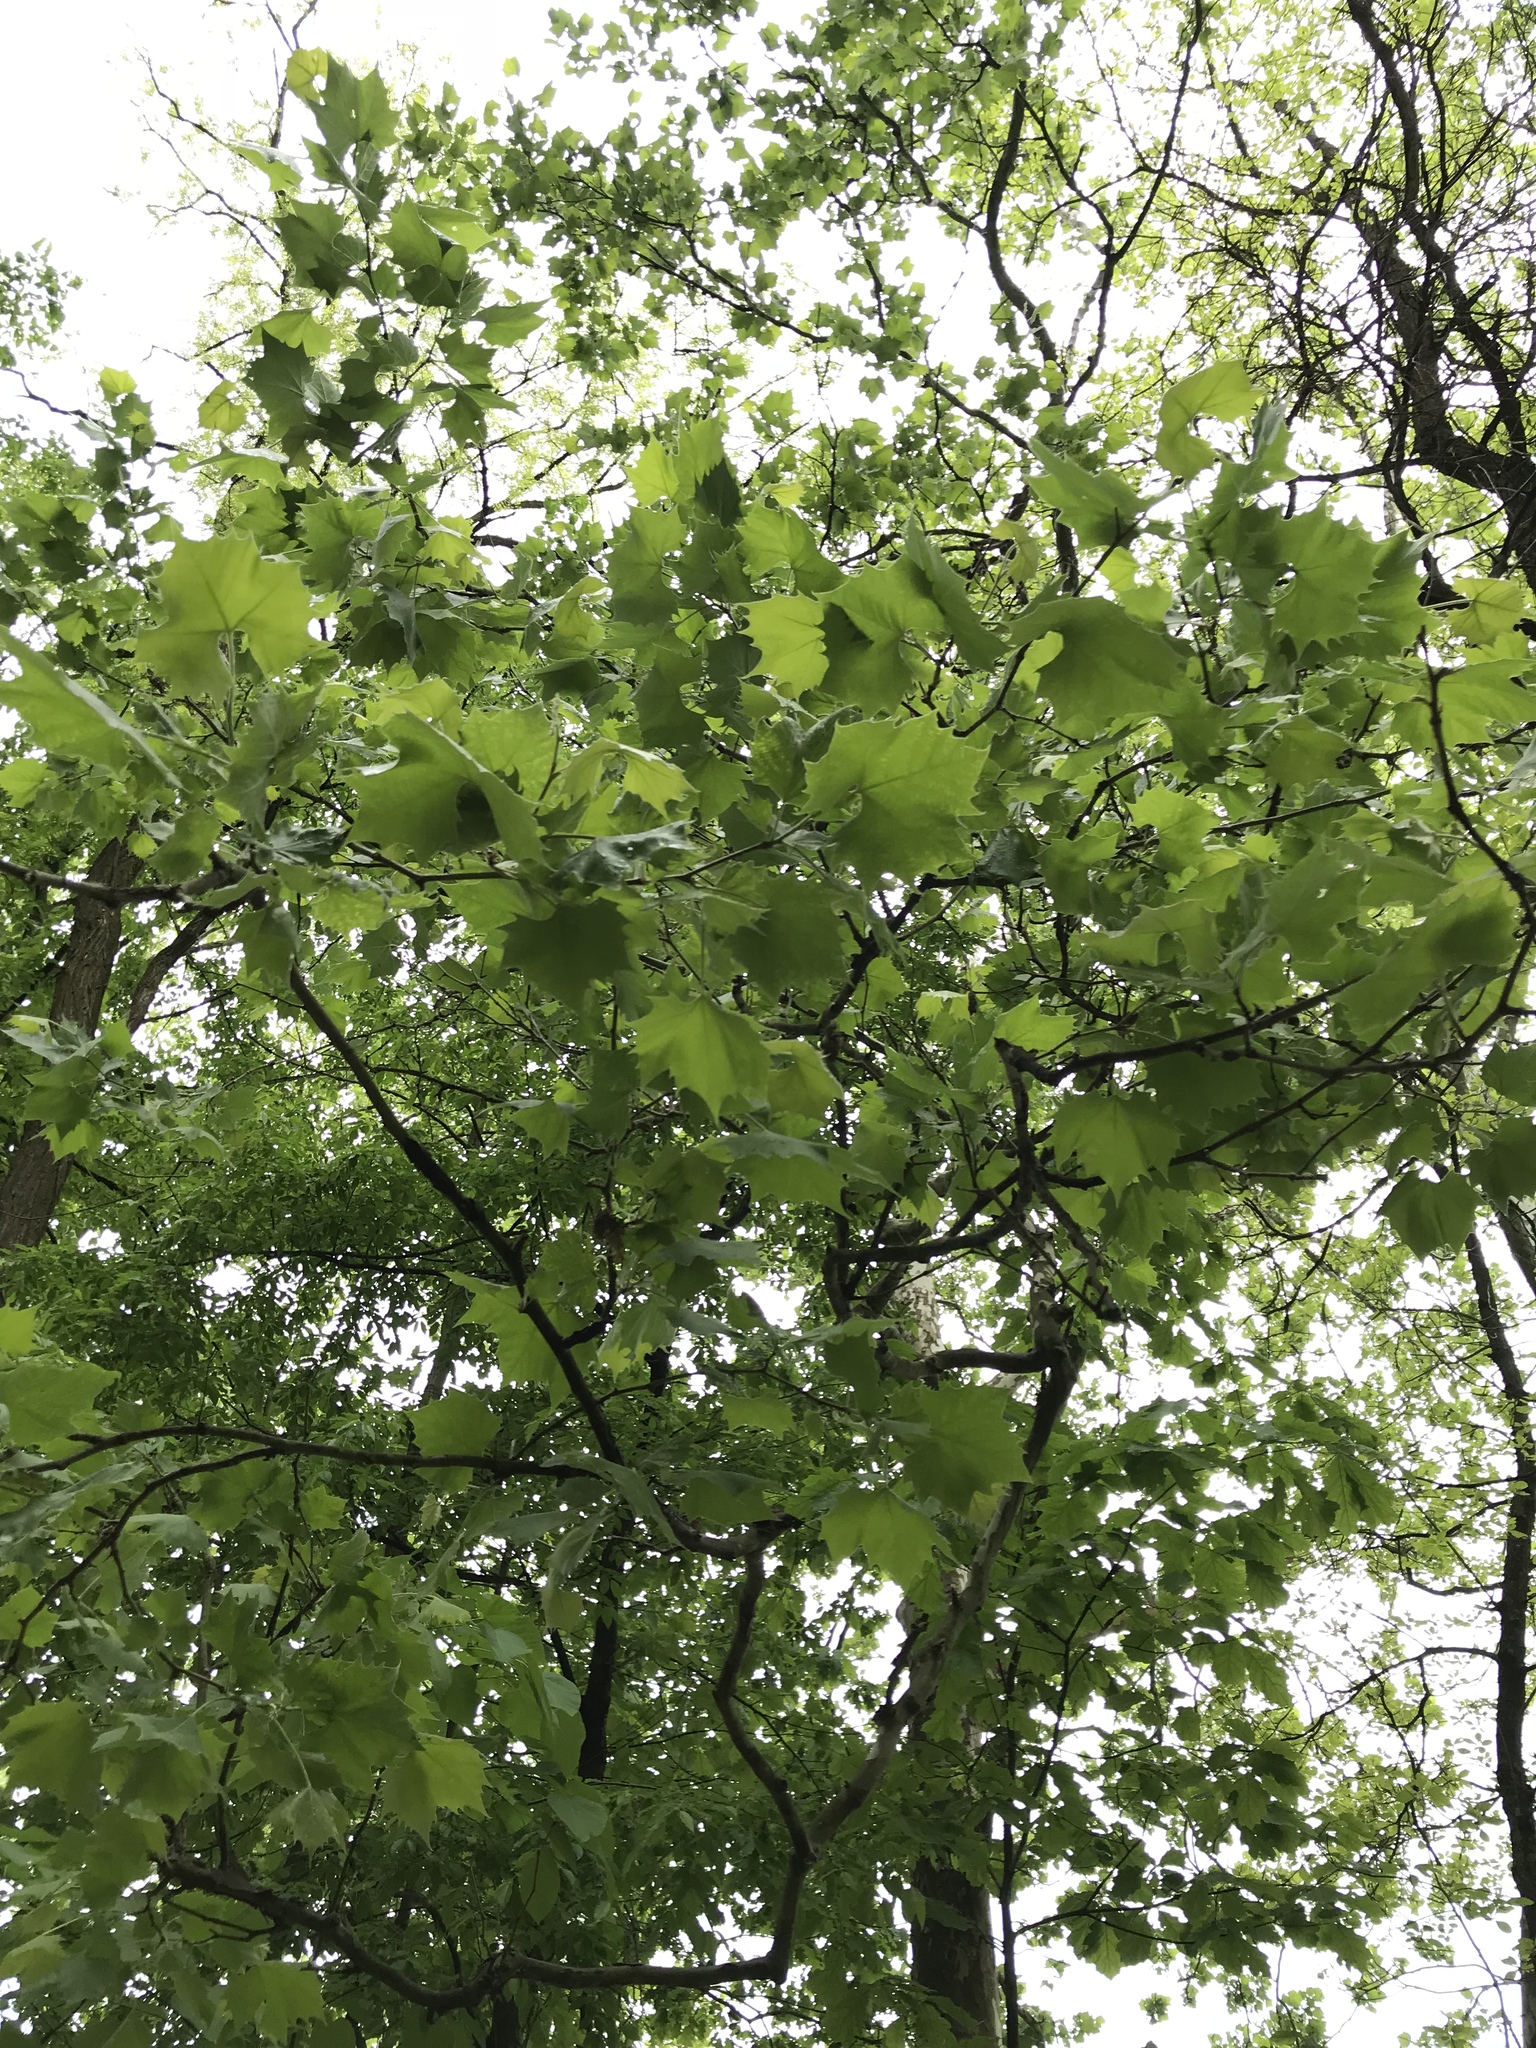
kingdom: Plantae
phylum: Tracheophyta
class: Magnoliopsida
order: Proteales
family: Platanaceae
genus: Platanus
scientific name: Platanus occidentalis
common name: American sycamore
